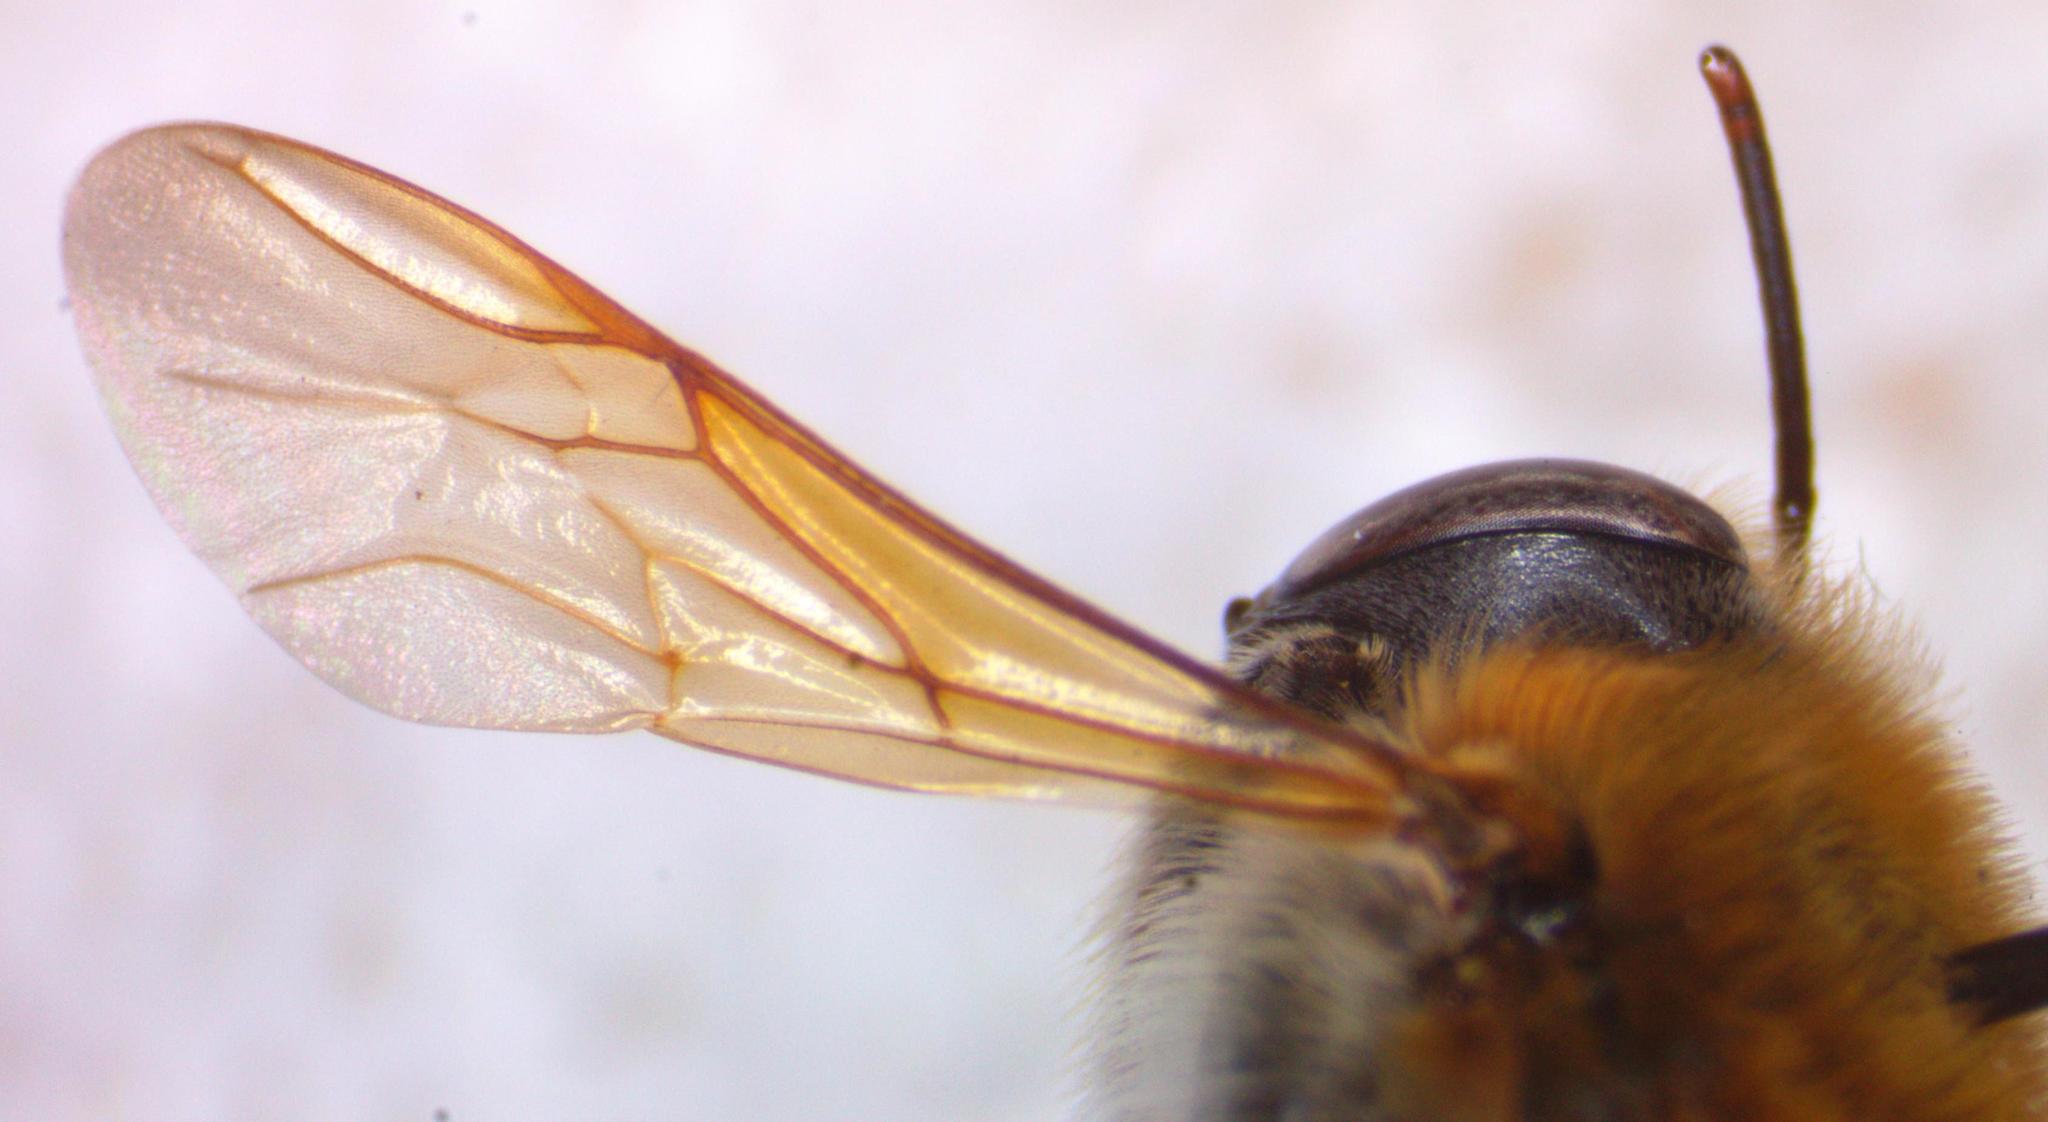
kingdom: Animalia
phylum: Arthropoda
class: Insecta
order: Hymenoptera
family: Apidae
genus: Melipona
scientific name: Melipona beecheii
